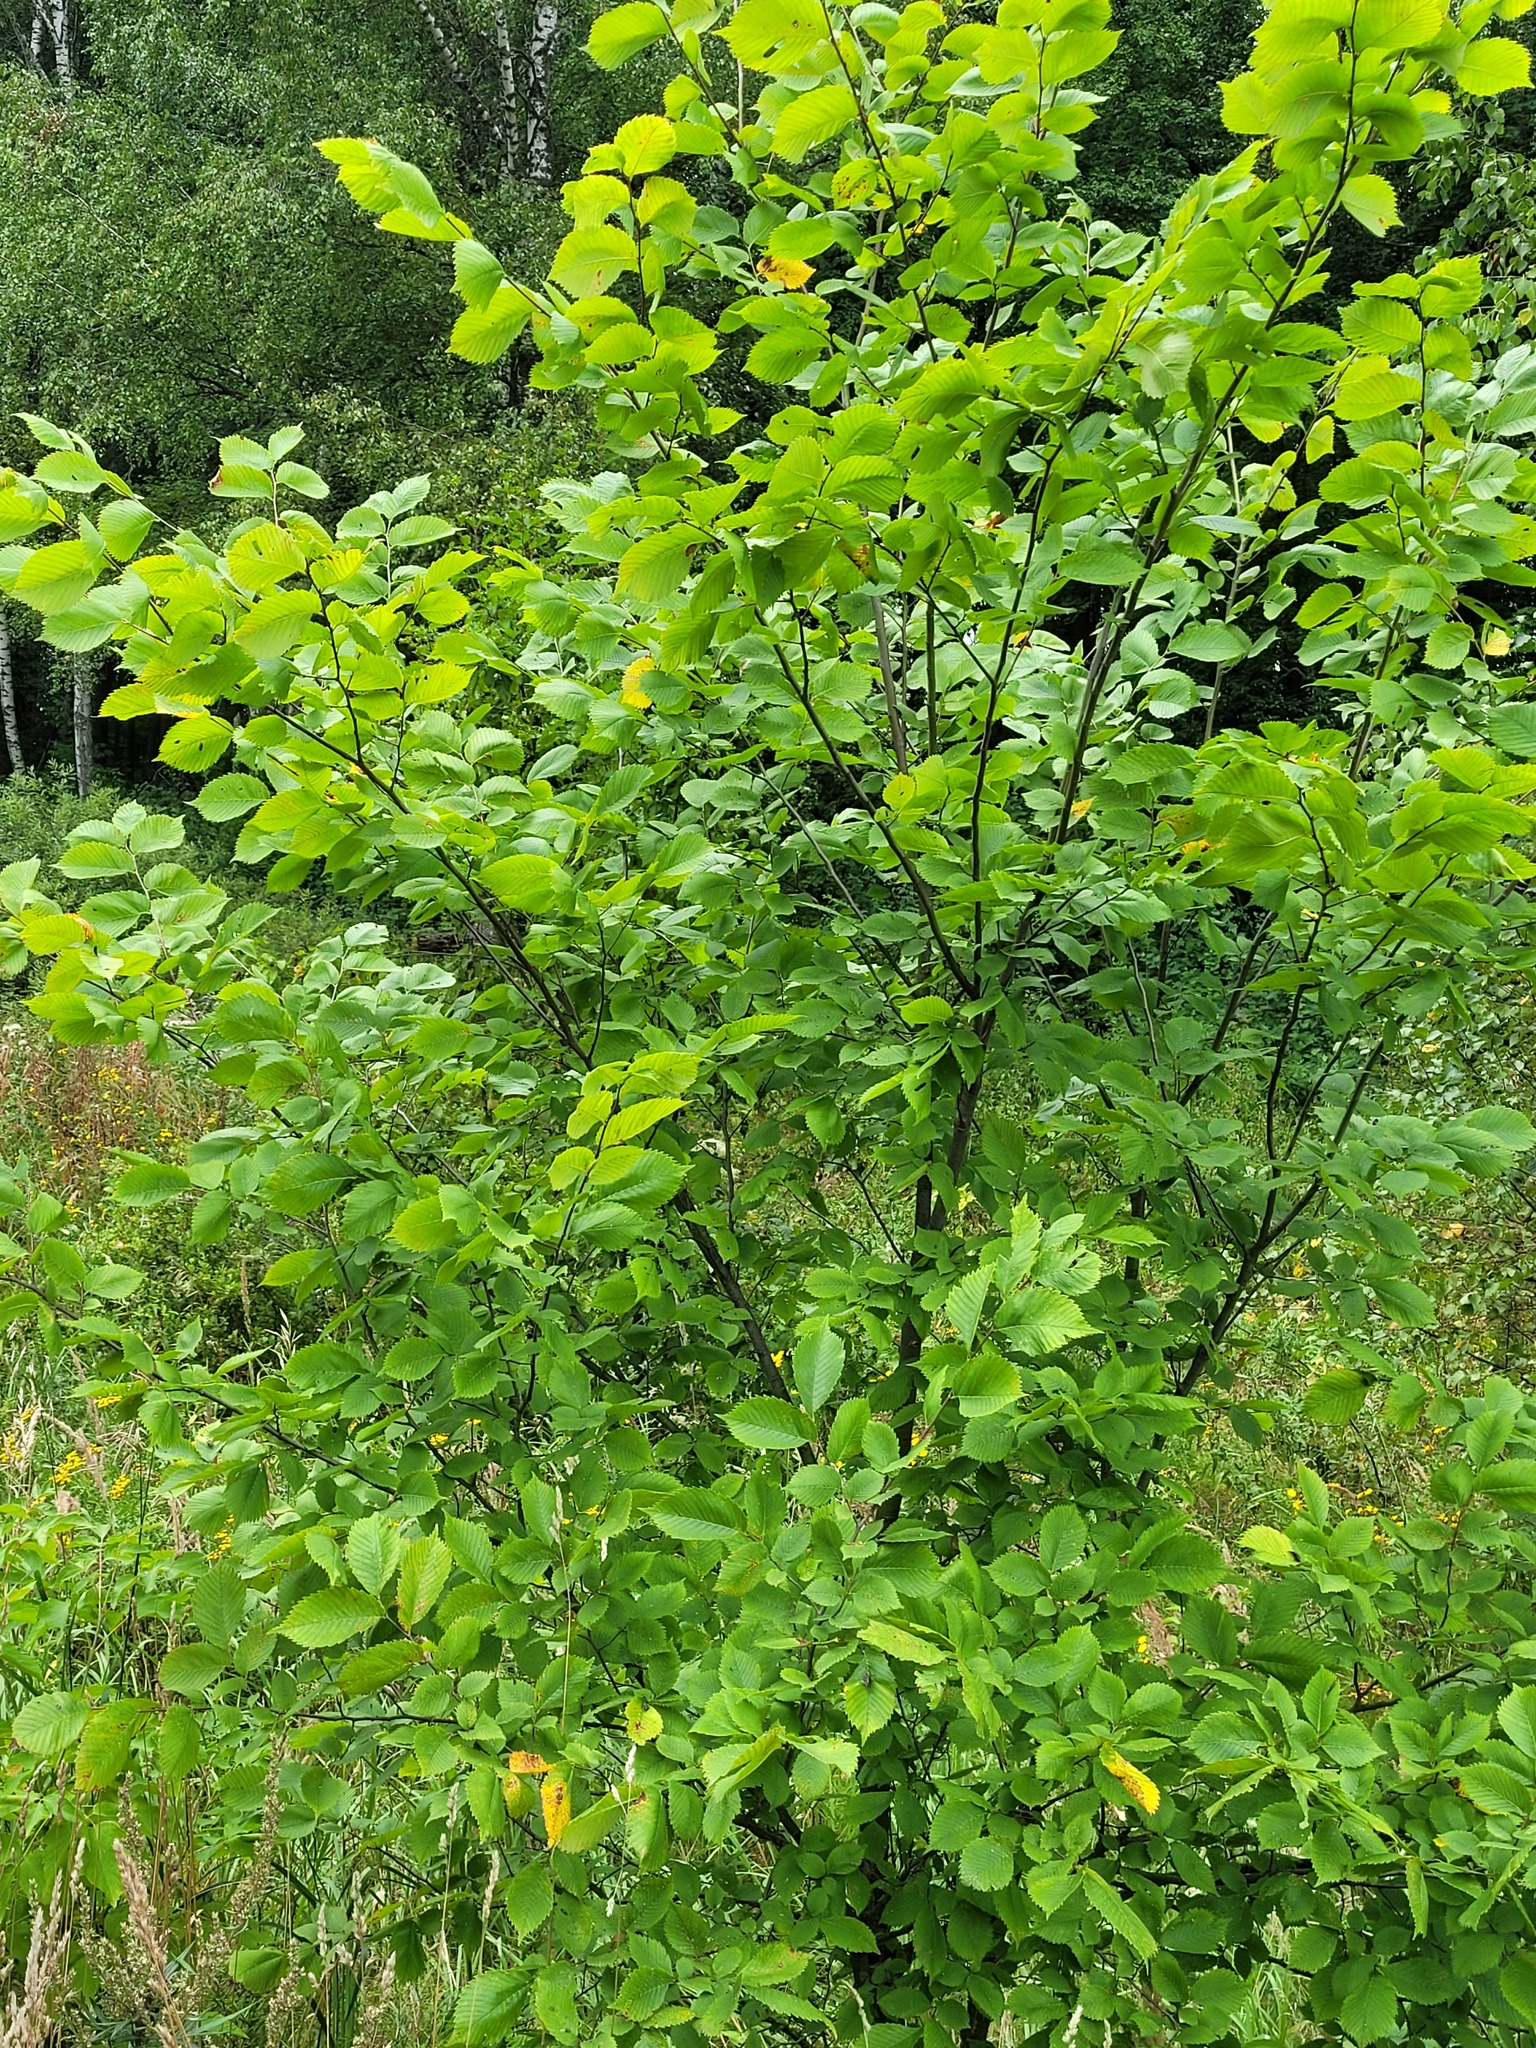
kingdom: Plantae
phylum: Tracheophyta
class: Magnoliopsida
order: Rosales
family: Ulmaceae
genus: Ulmus
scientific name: Ulmus laevis
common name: European white-elm
